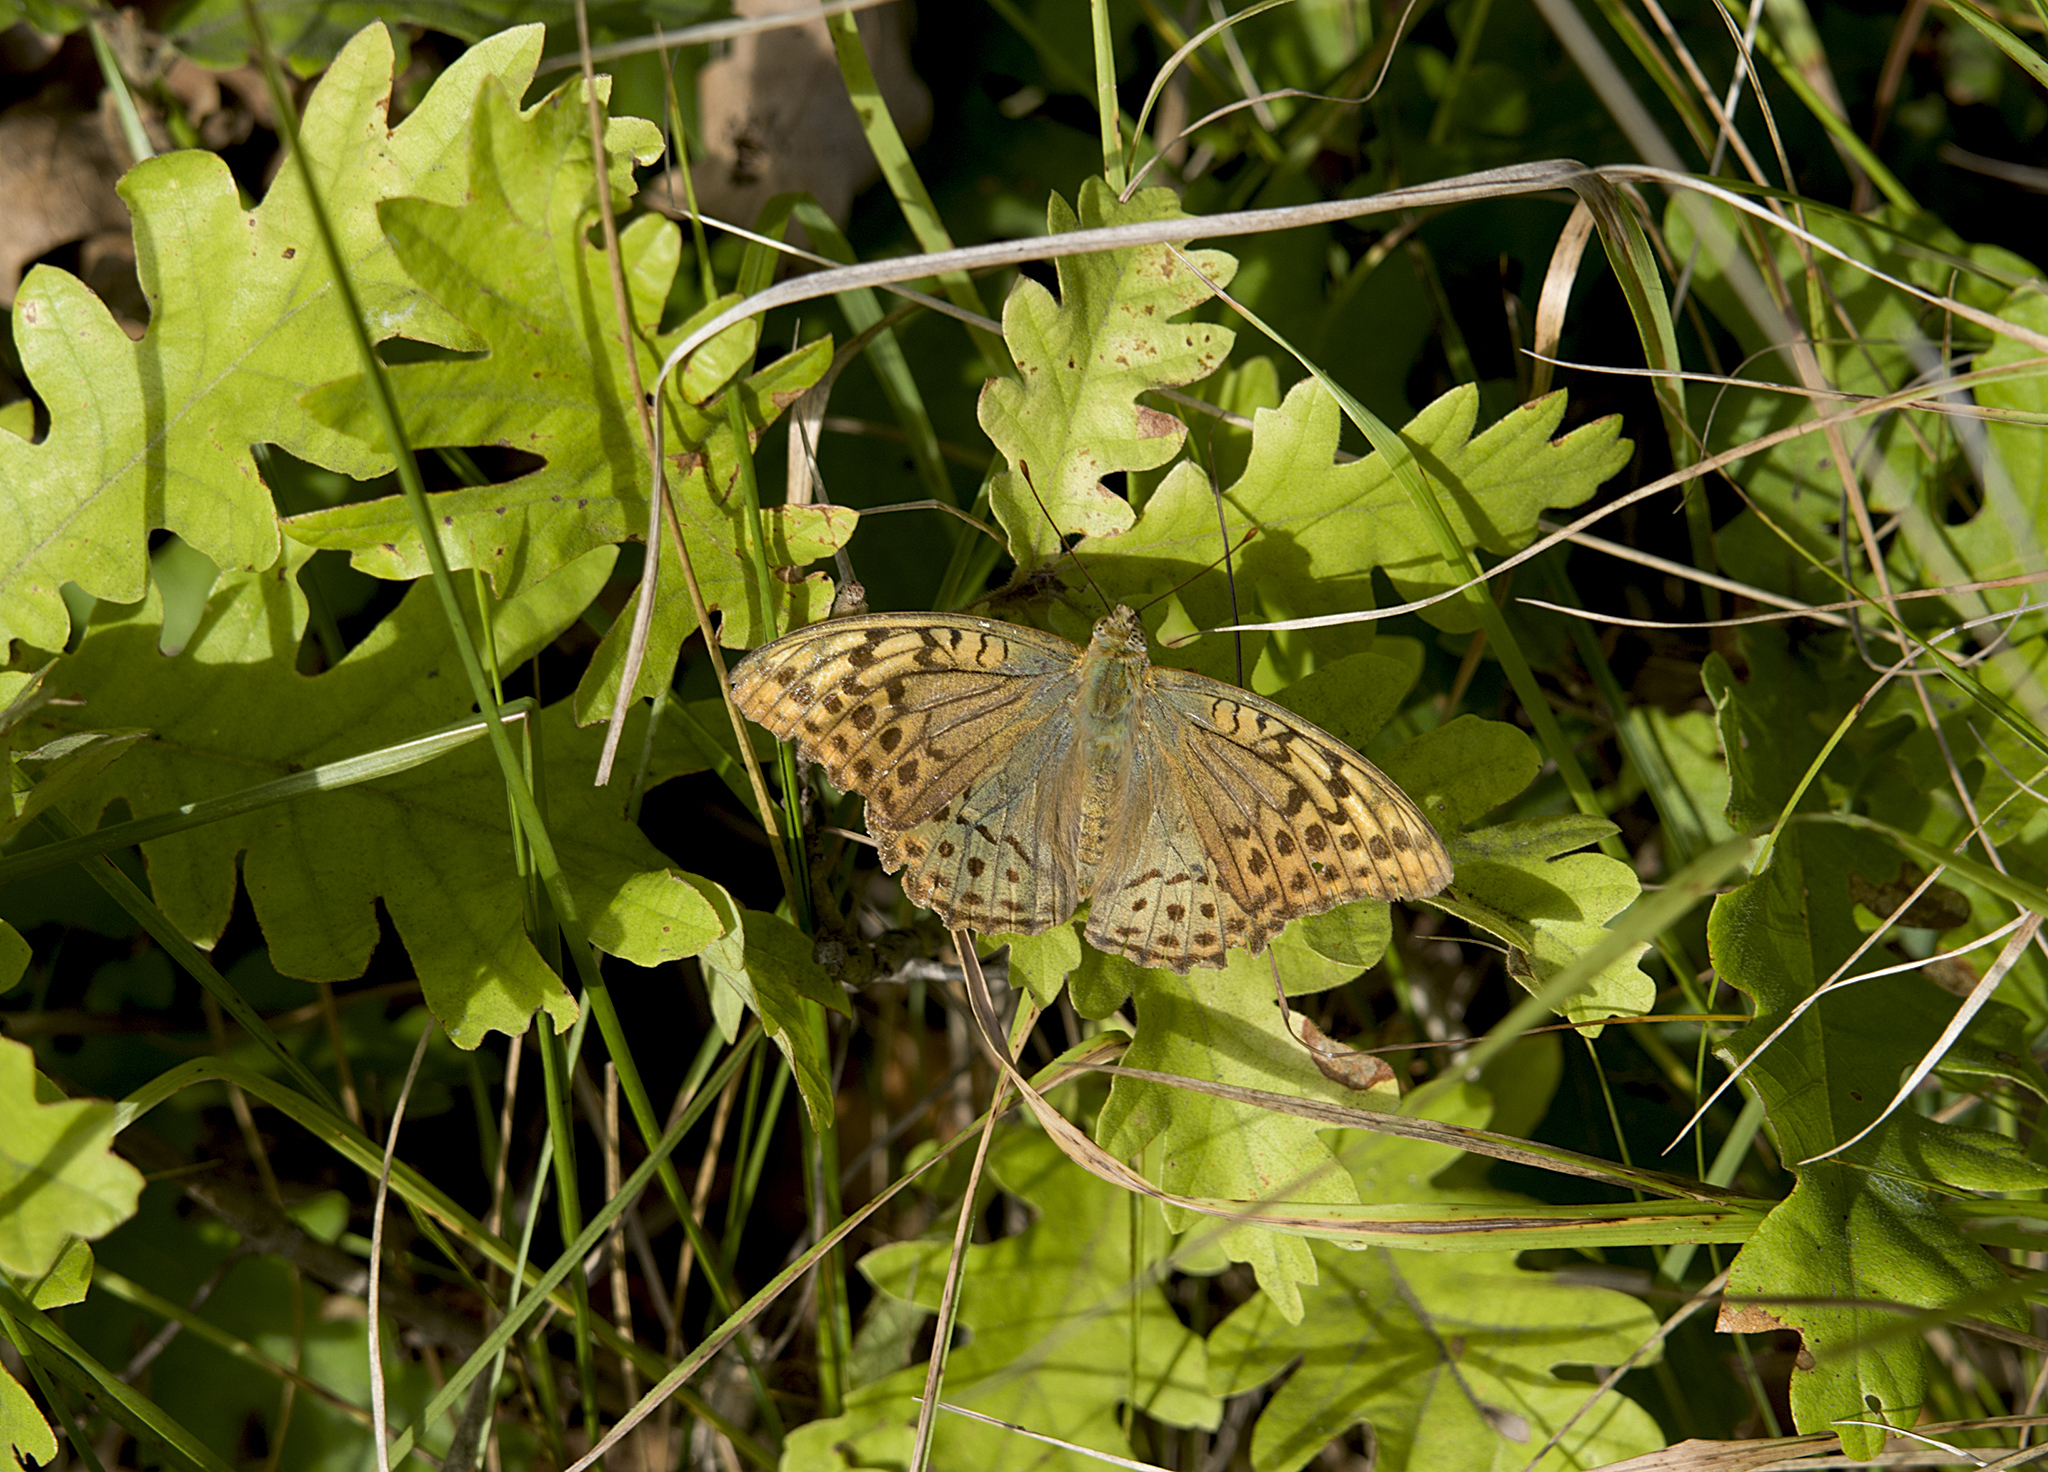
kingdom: Animalia
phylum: Arthropoda
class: Insecta
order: Lepidoptera
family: Nymphalidae
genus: Damora
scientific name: Damora pandora
